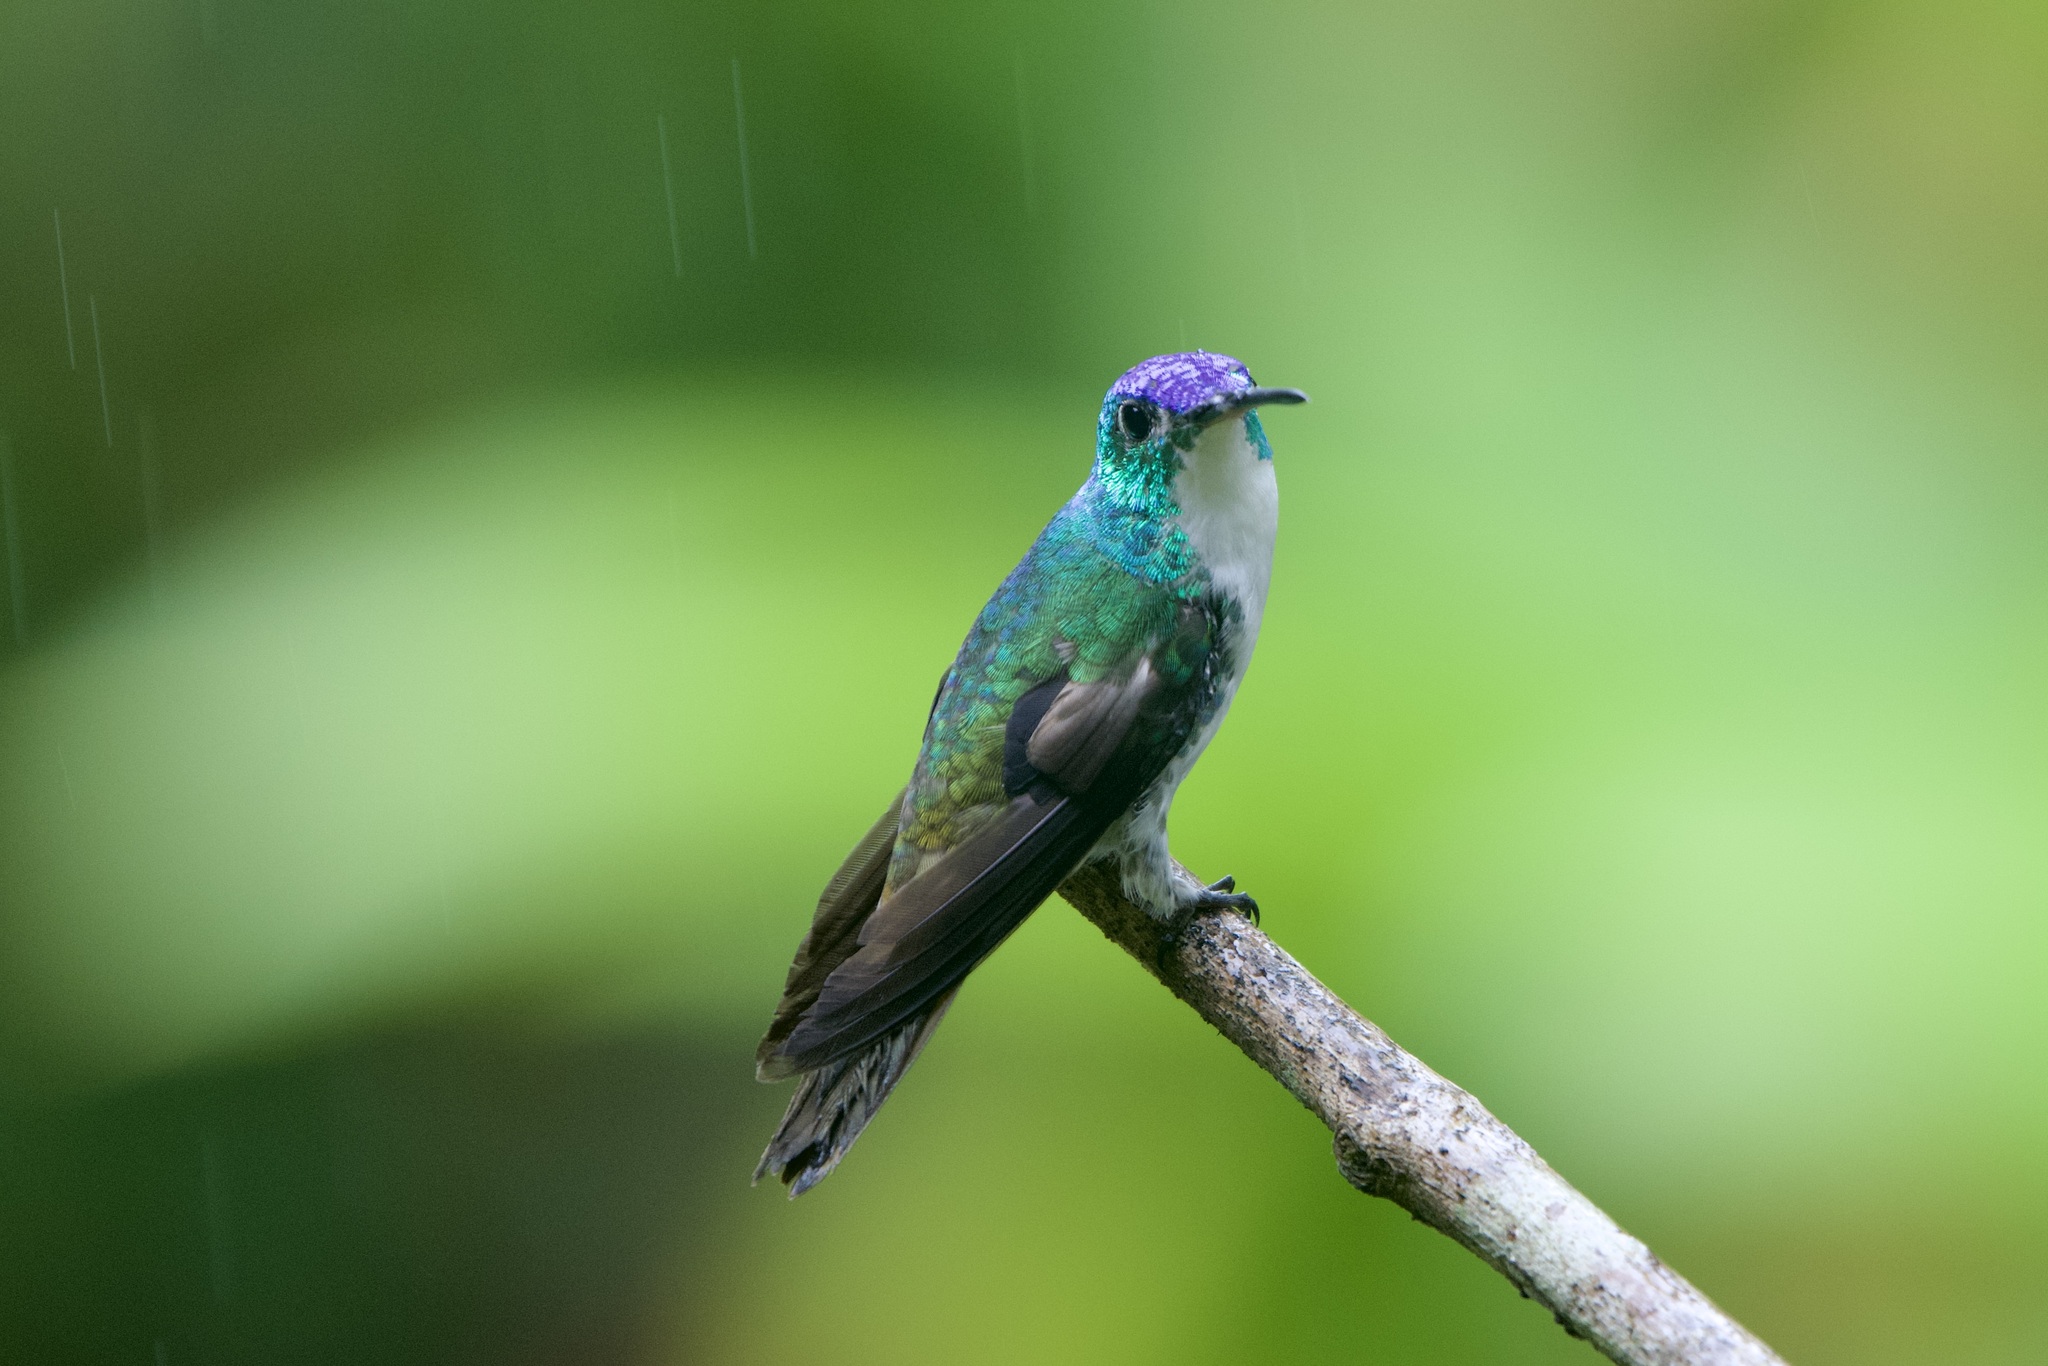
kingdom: Animalia
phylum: Chordata
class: Aves
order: Apodiformes
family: Trochilidae
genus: Uranomitra
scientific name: Uranomitra franciae
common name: Andean emerald
